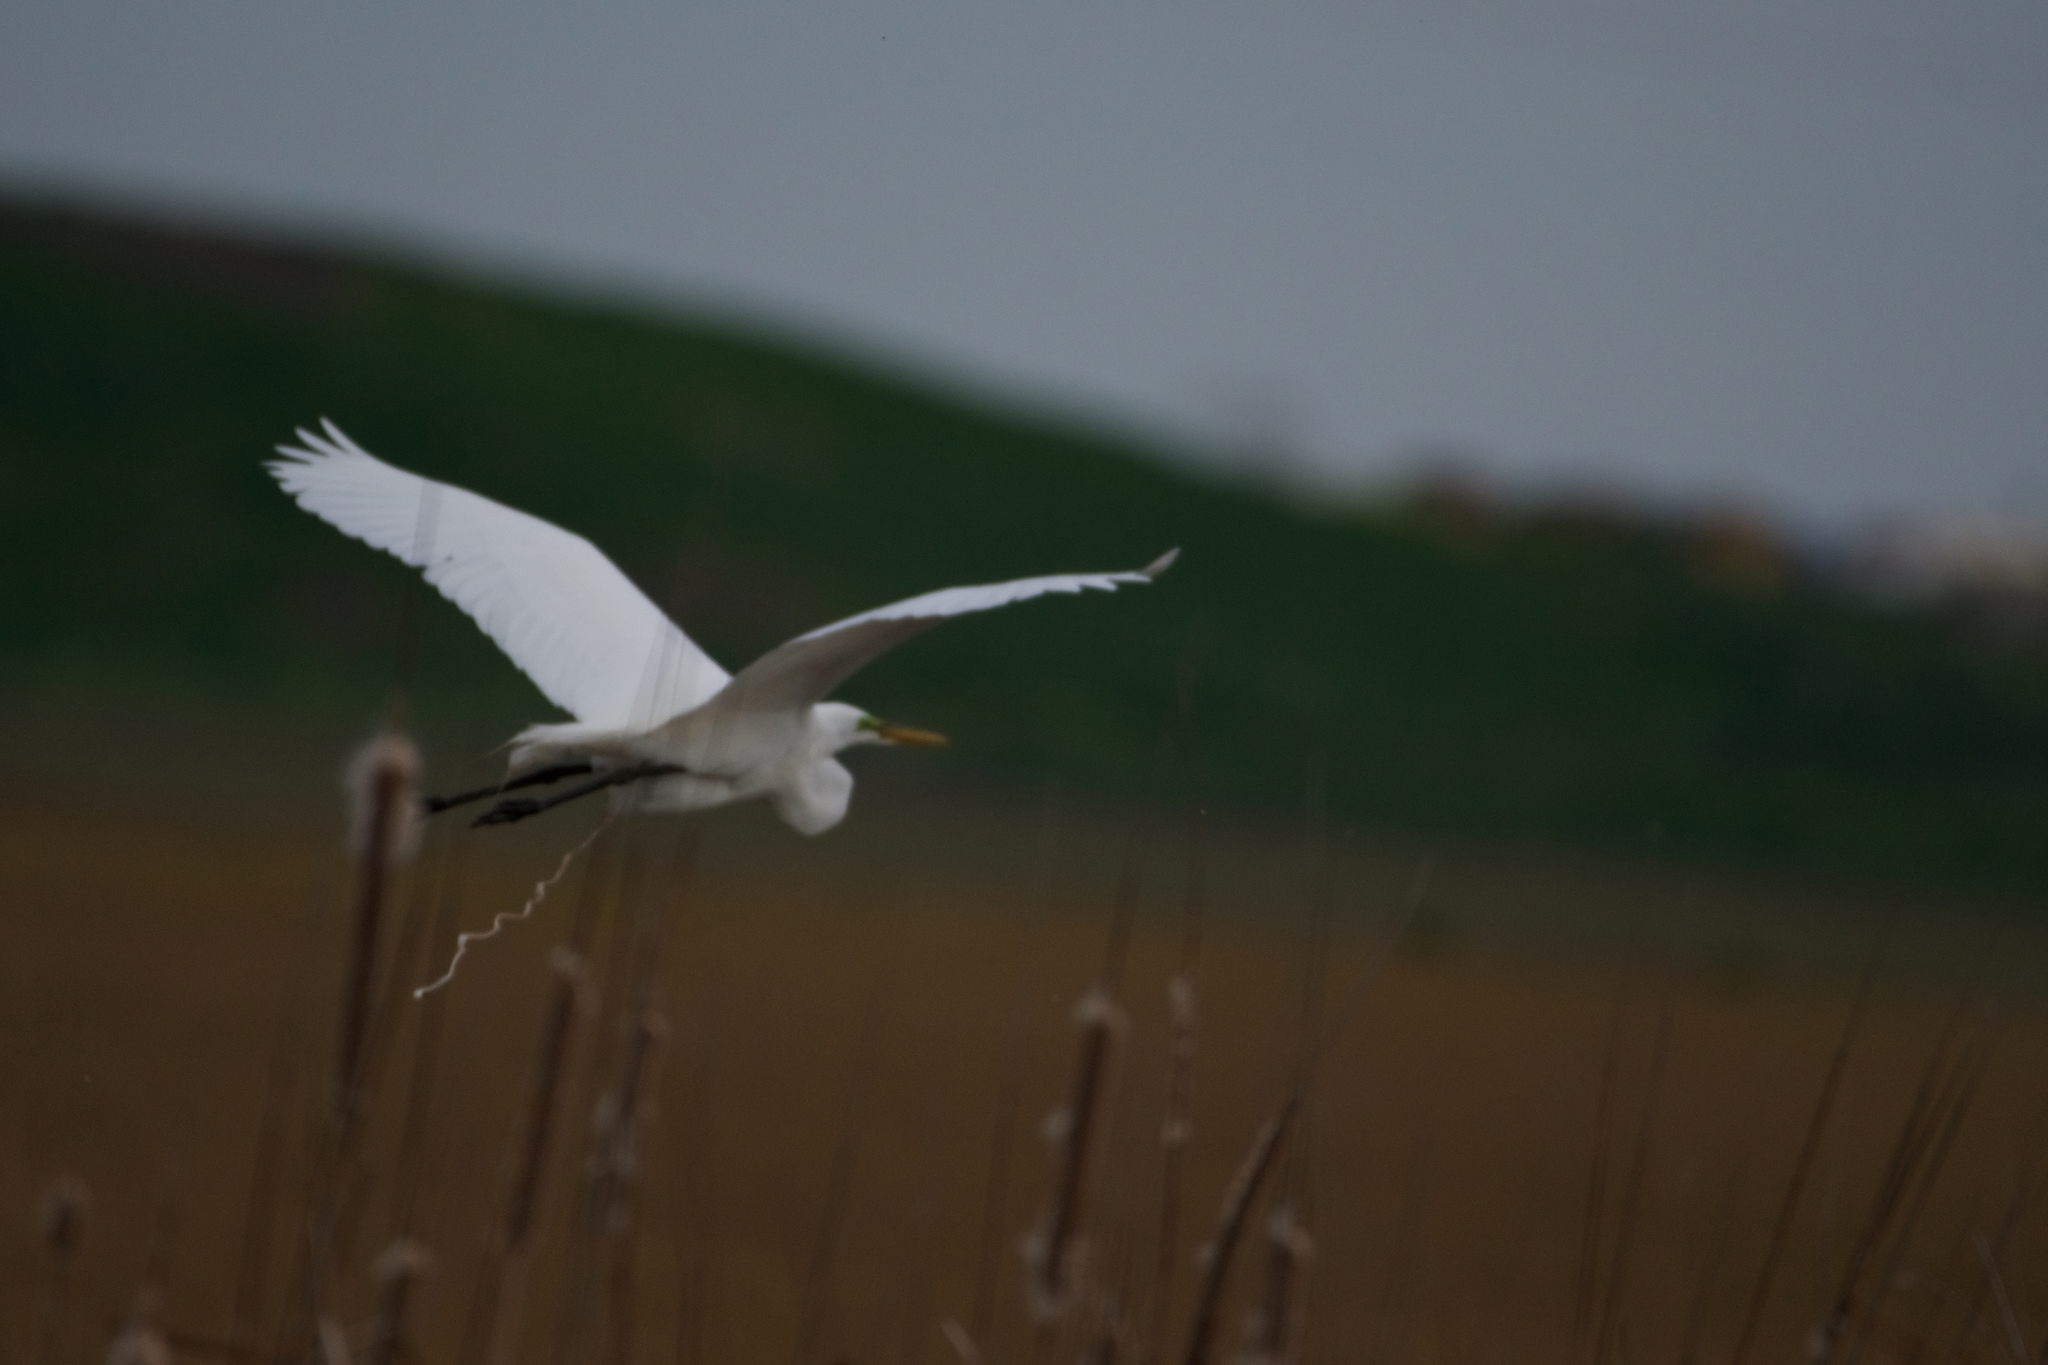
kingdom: Animalia
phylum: Chordata
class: Aves
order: Pelecaniformes
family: Ardeidae
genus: Ardea
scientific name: Ardea alba
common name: Great egret
